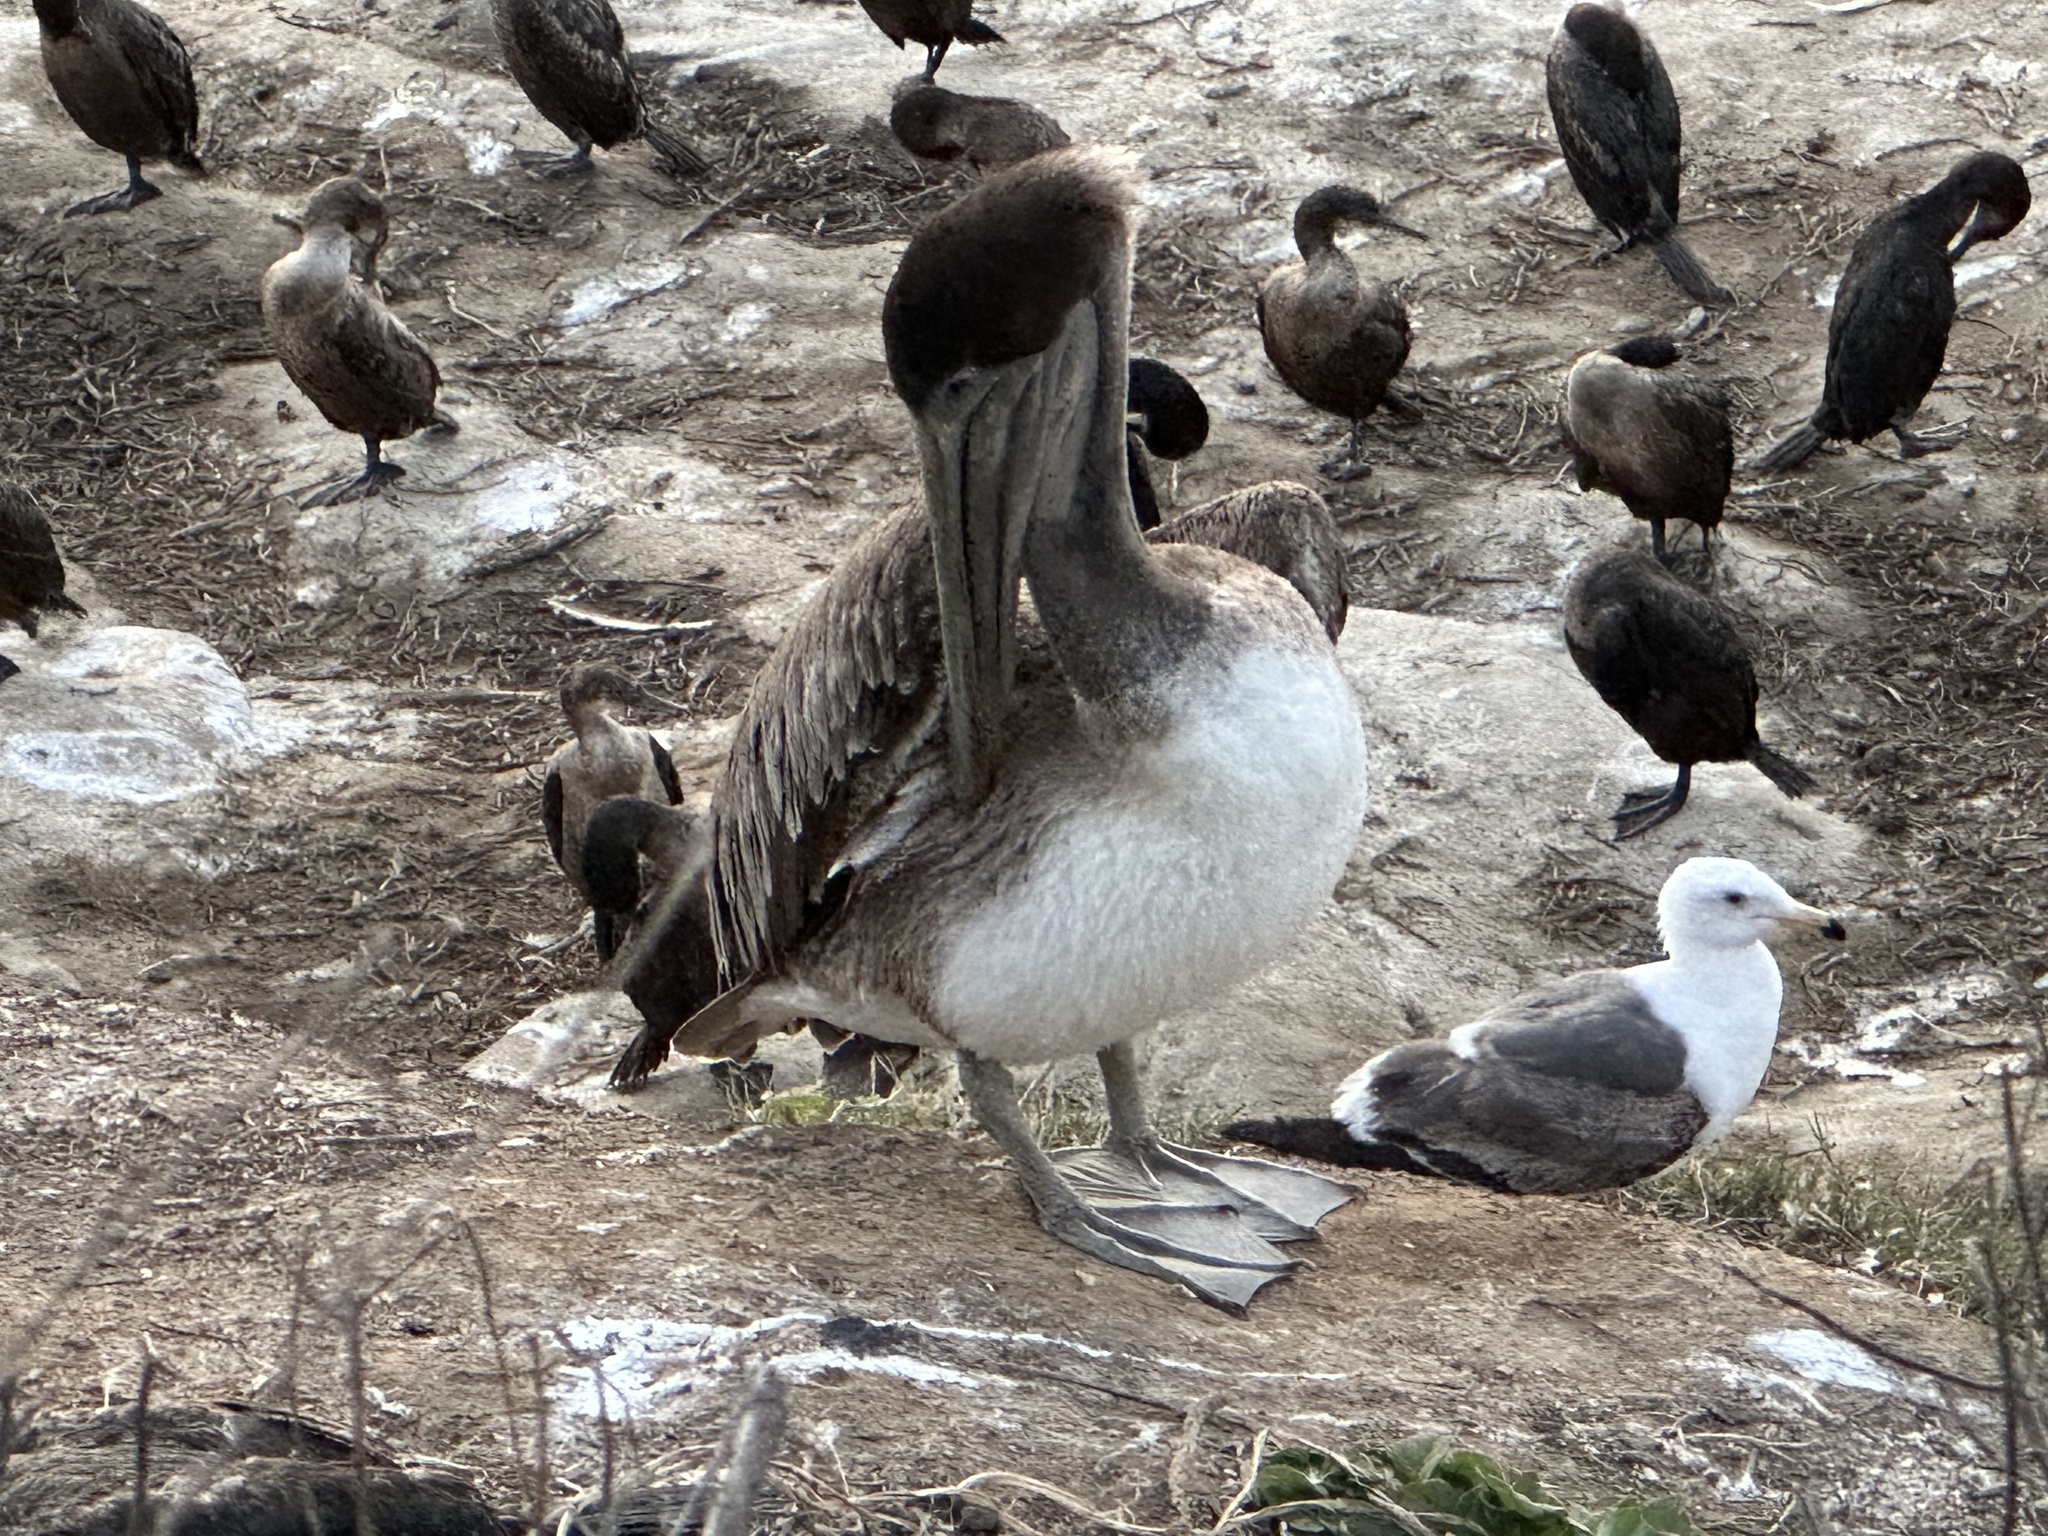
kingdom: Animalia
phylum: Chordata
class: Aves
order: Pelecaniformes
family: Pelecanidae
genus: Pelecanus
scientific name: Pelecanus occidentalis
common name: Brown pelican
